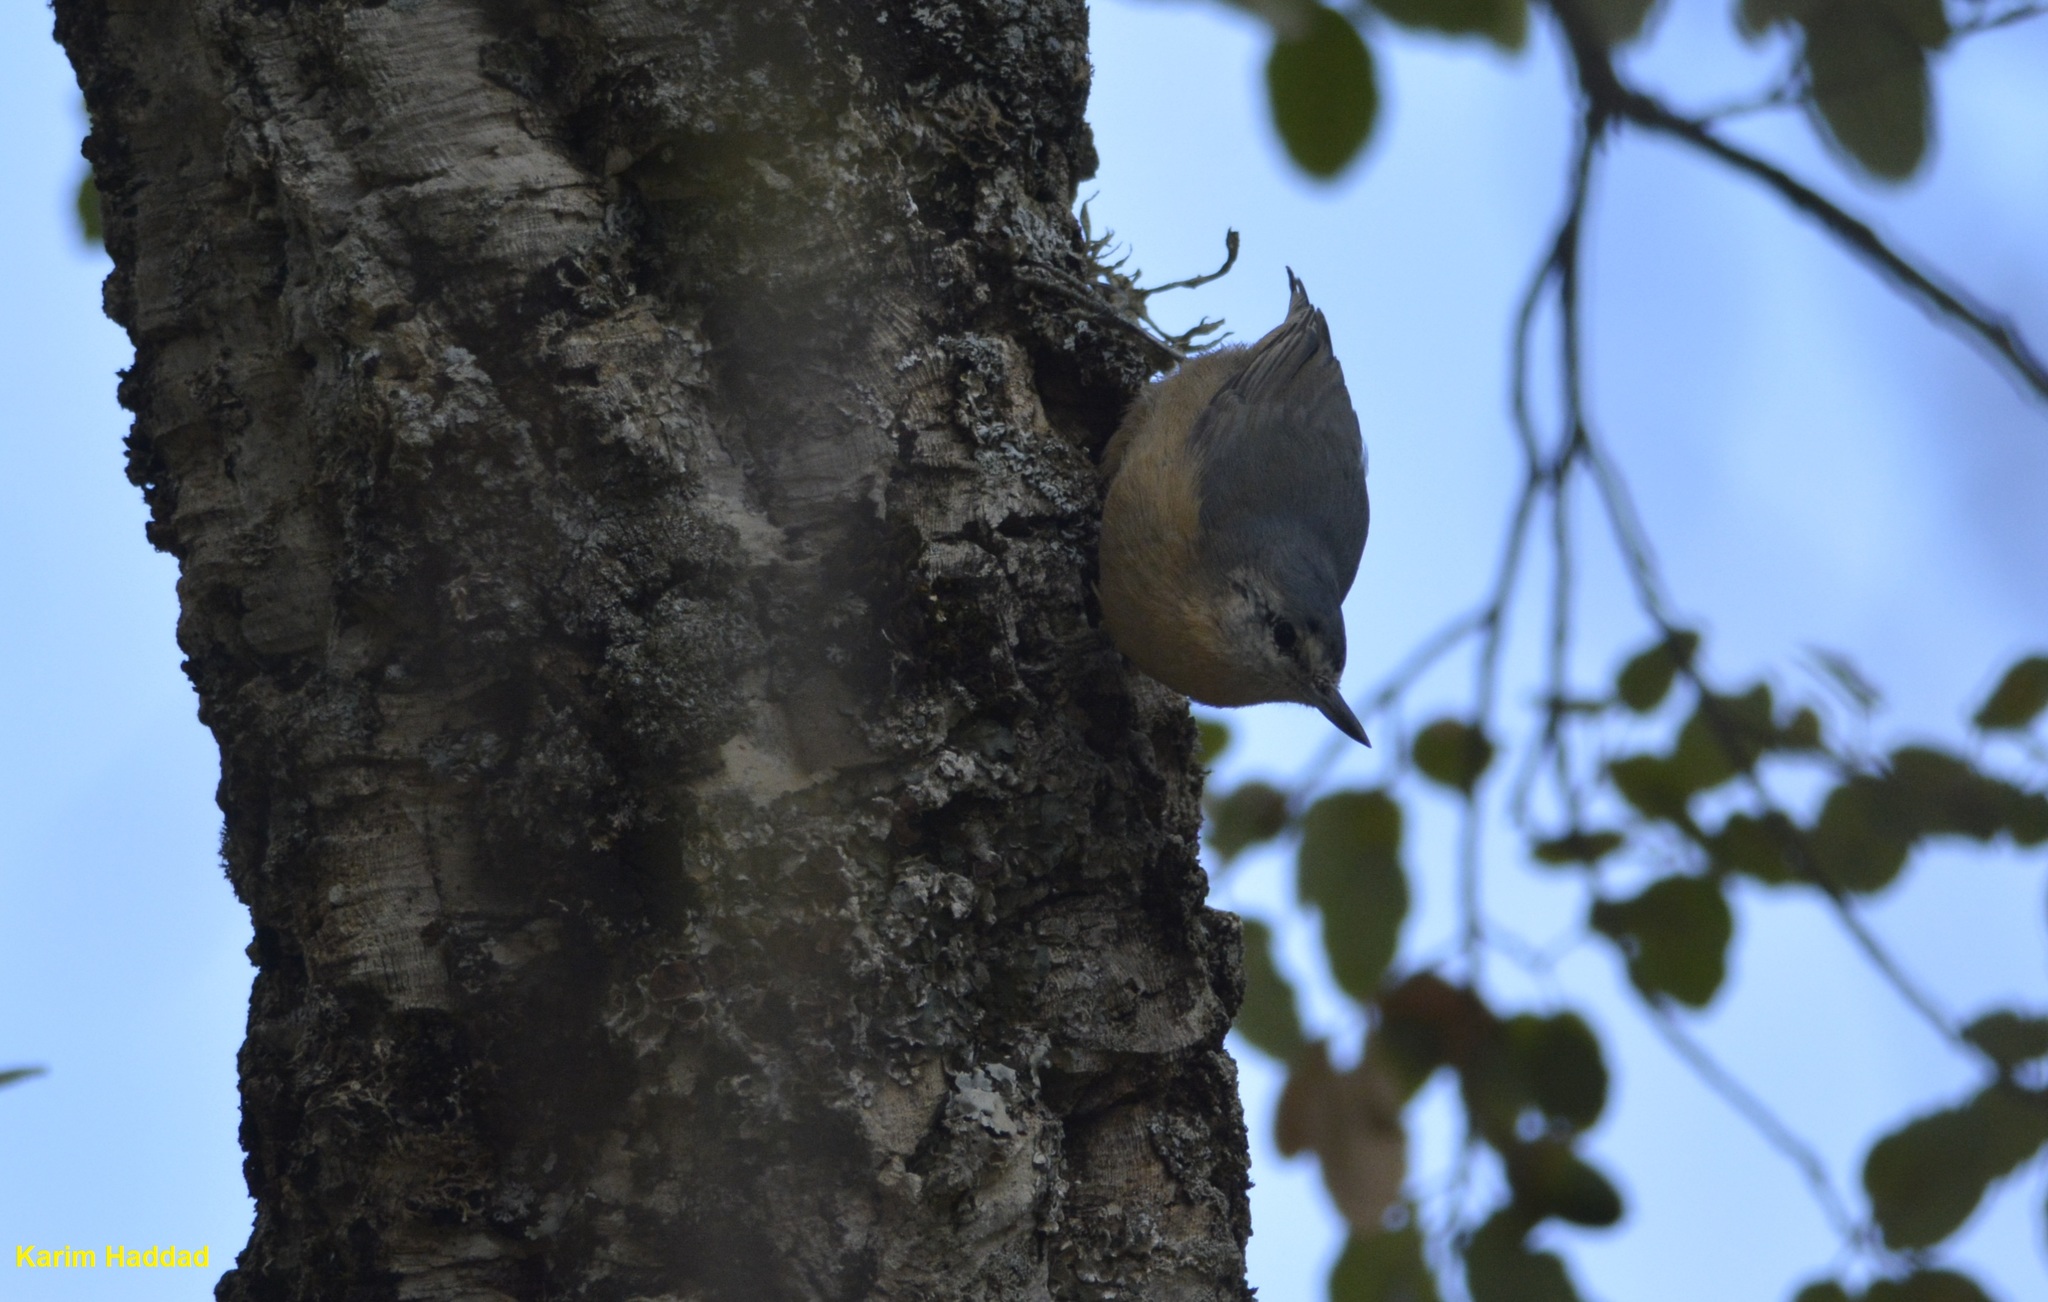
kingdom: Animalia
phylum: Chordata
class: Aves
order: Passeriformes
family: Sittidae
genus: Sitta
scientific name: Sitta ledanti
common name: Algerian nuthatch
